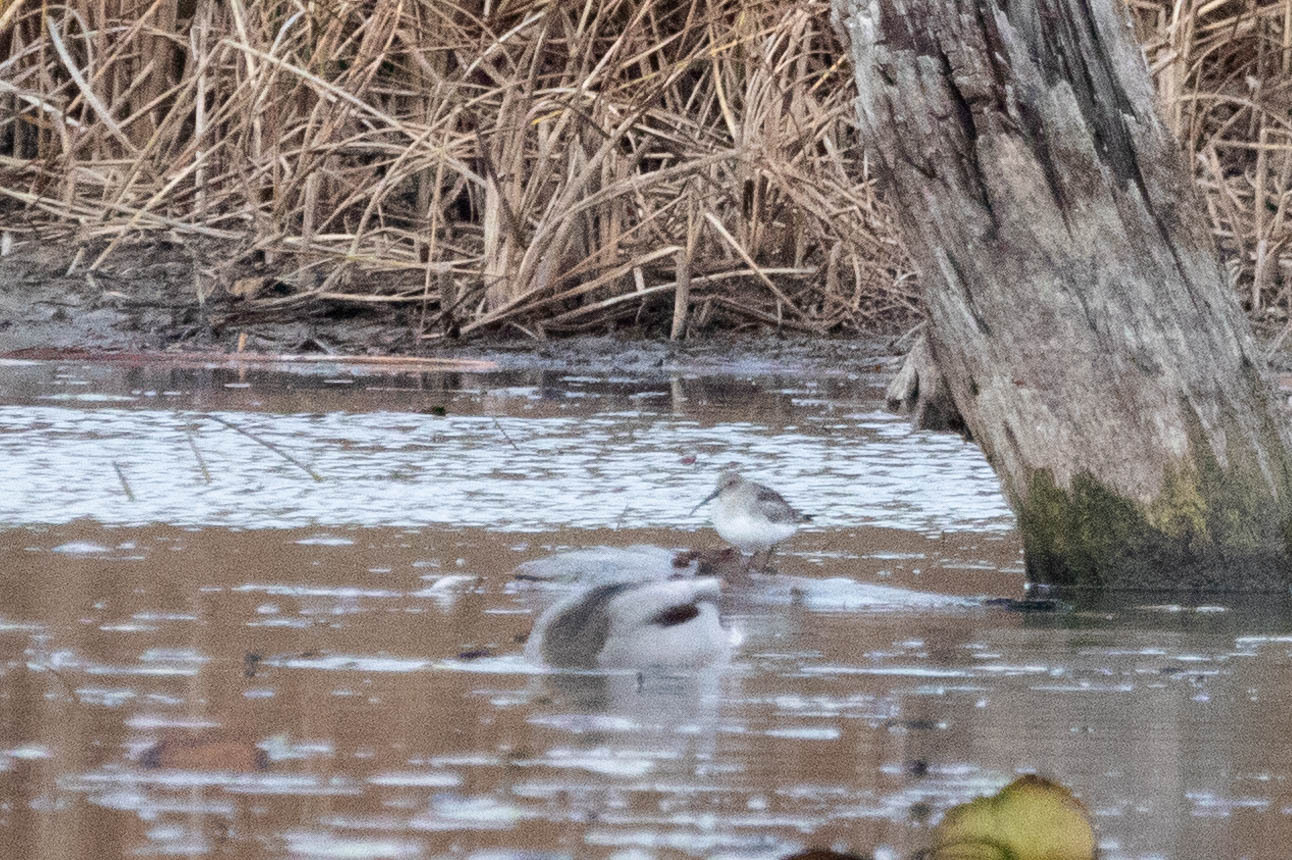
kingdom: Animalia
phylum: Chordata
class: Aves
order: Charadriiformes
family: Scolopacidae
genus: Calidris
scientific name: Calidris alpina
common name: Dunlin
